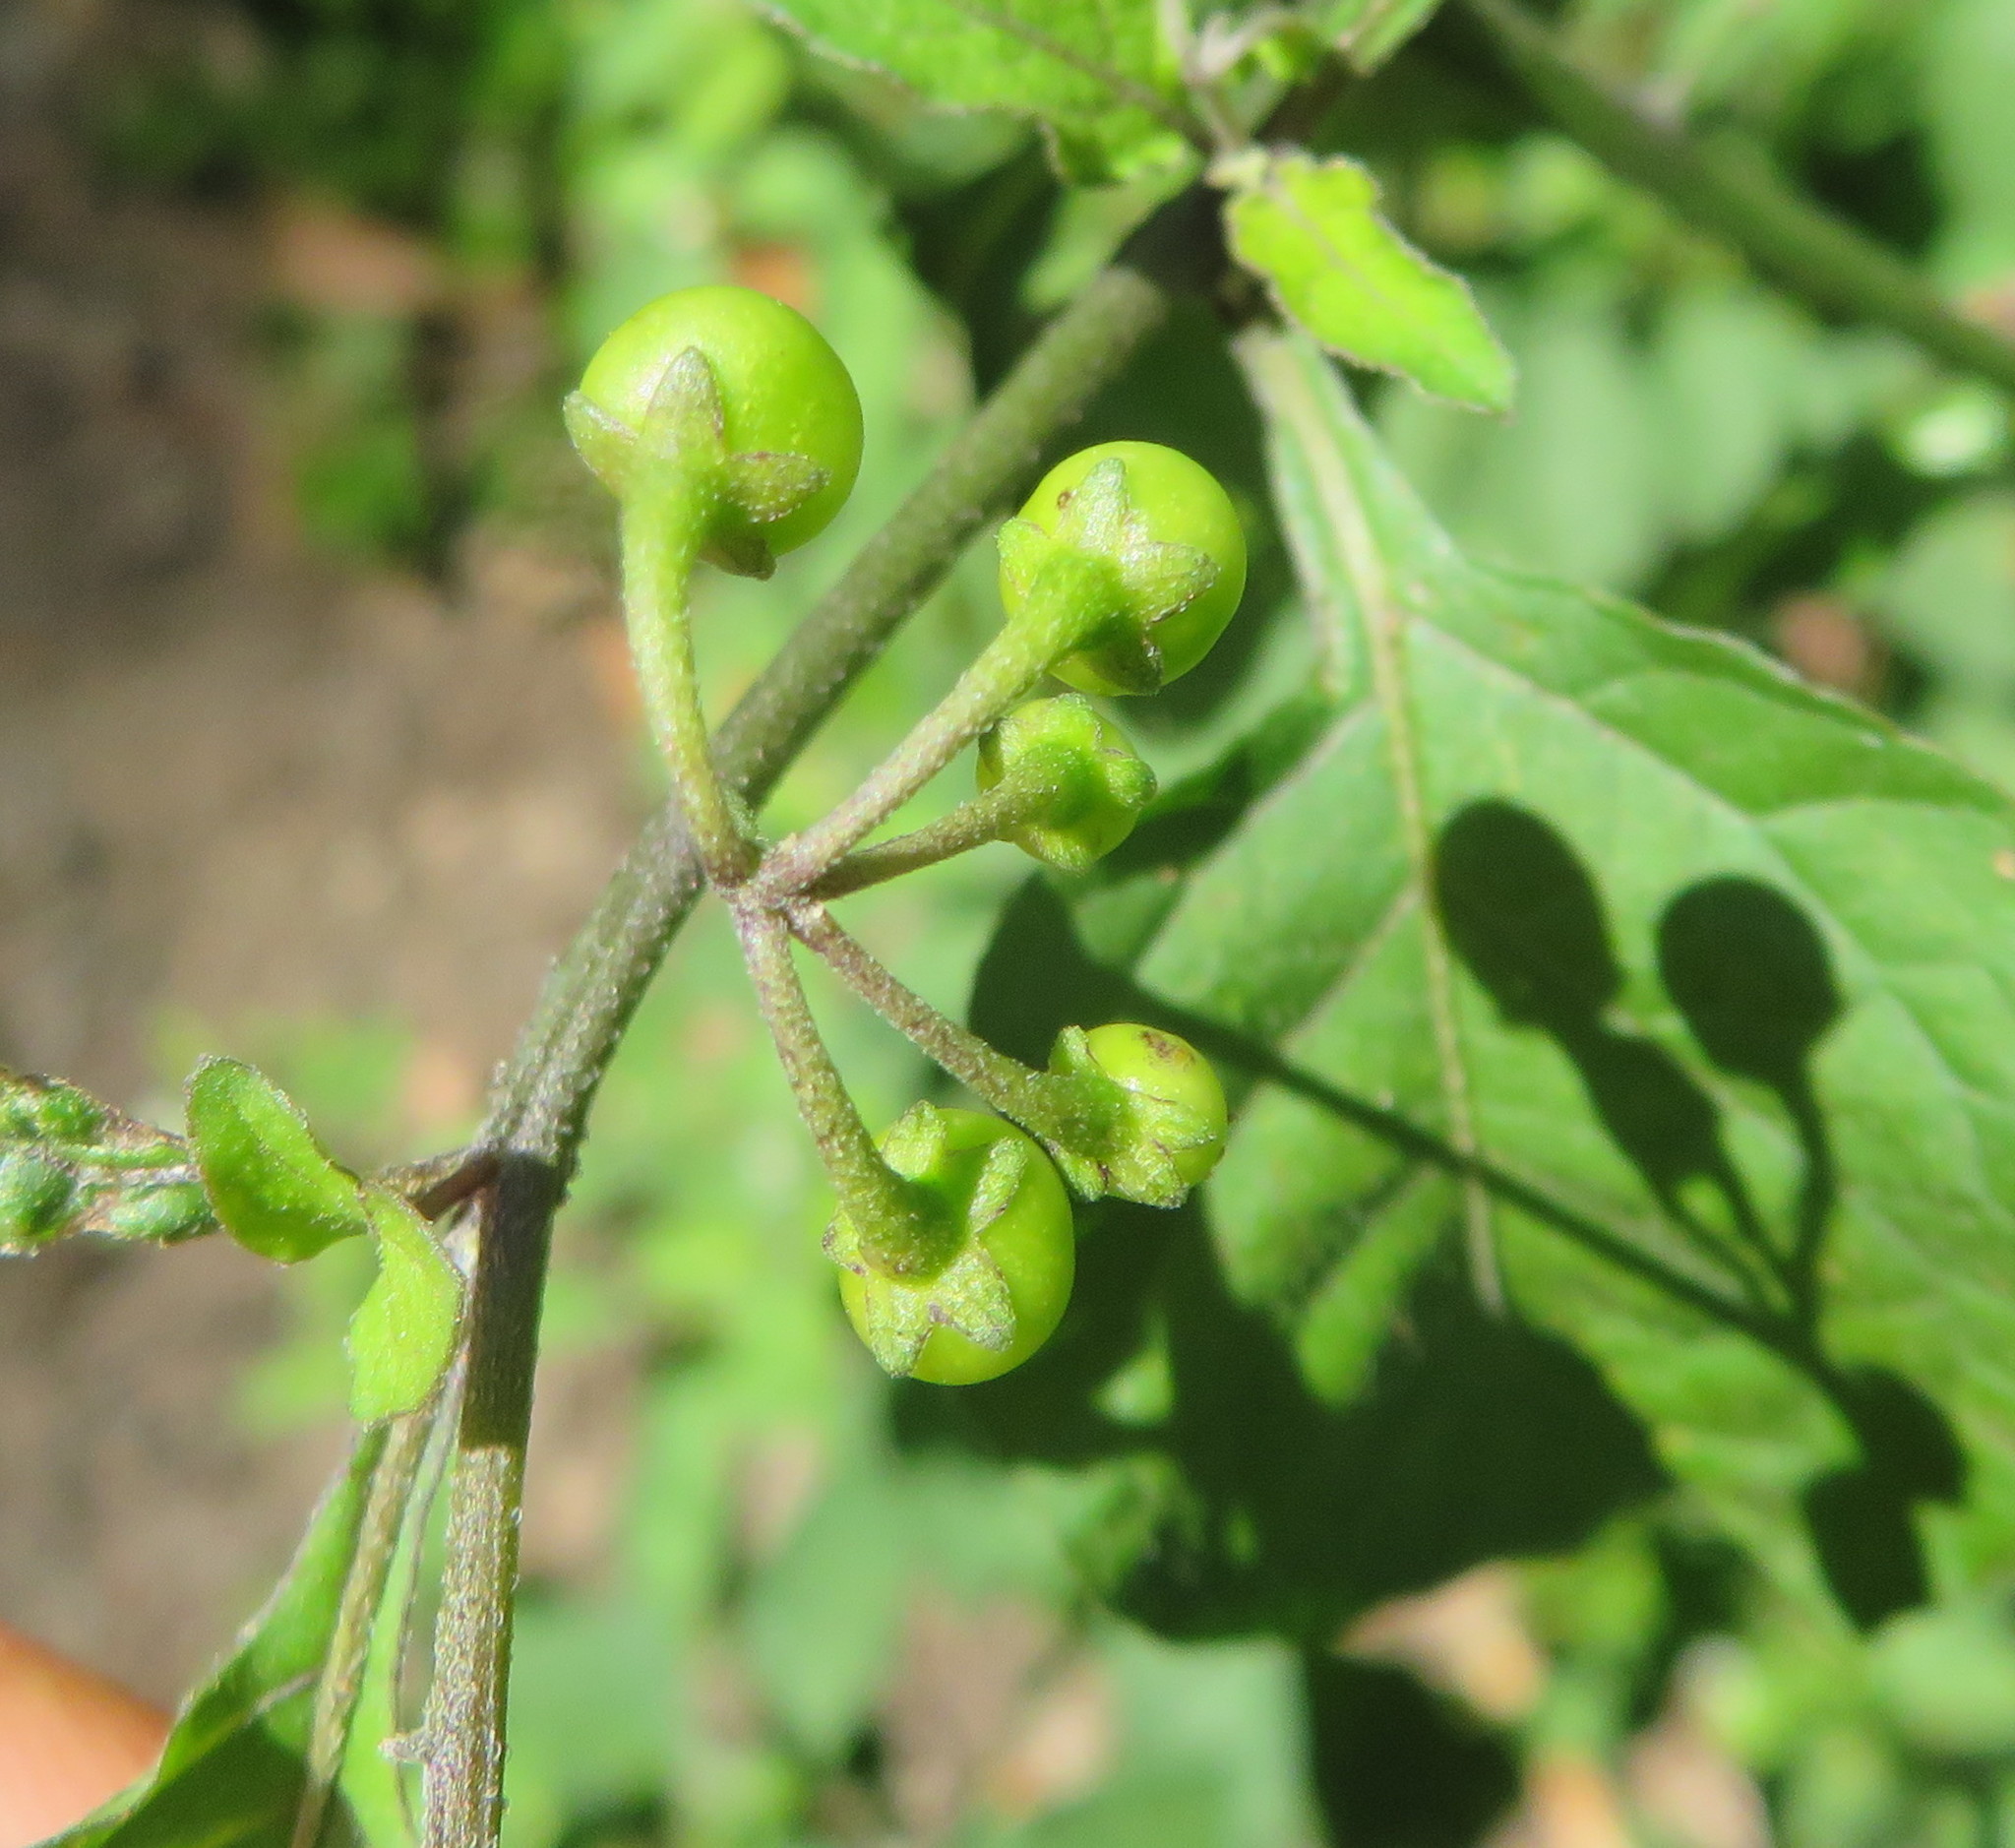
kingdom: Plantae
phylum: Tracheophyta
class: Magnoliopsida
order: Solanales
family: Solanaceae
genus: Solanum
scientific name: Solanum nigrum
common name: Black nightshade
